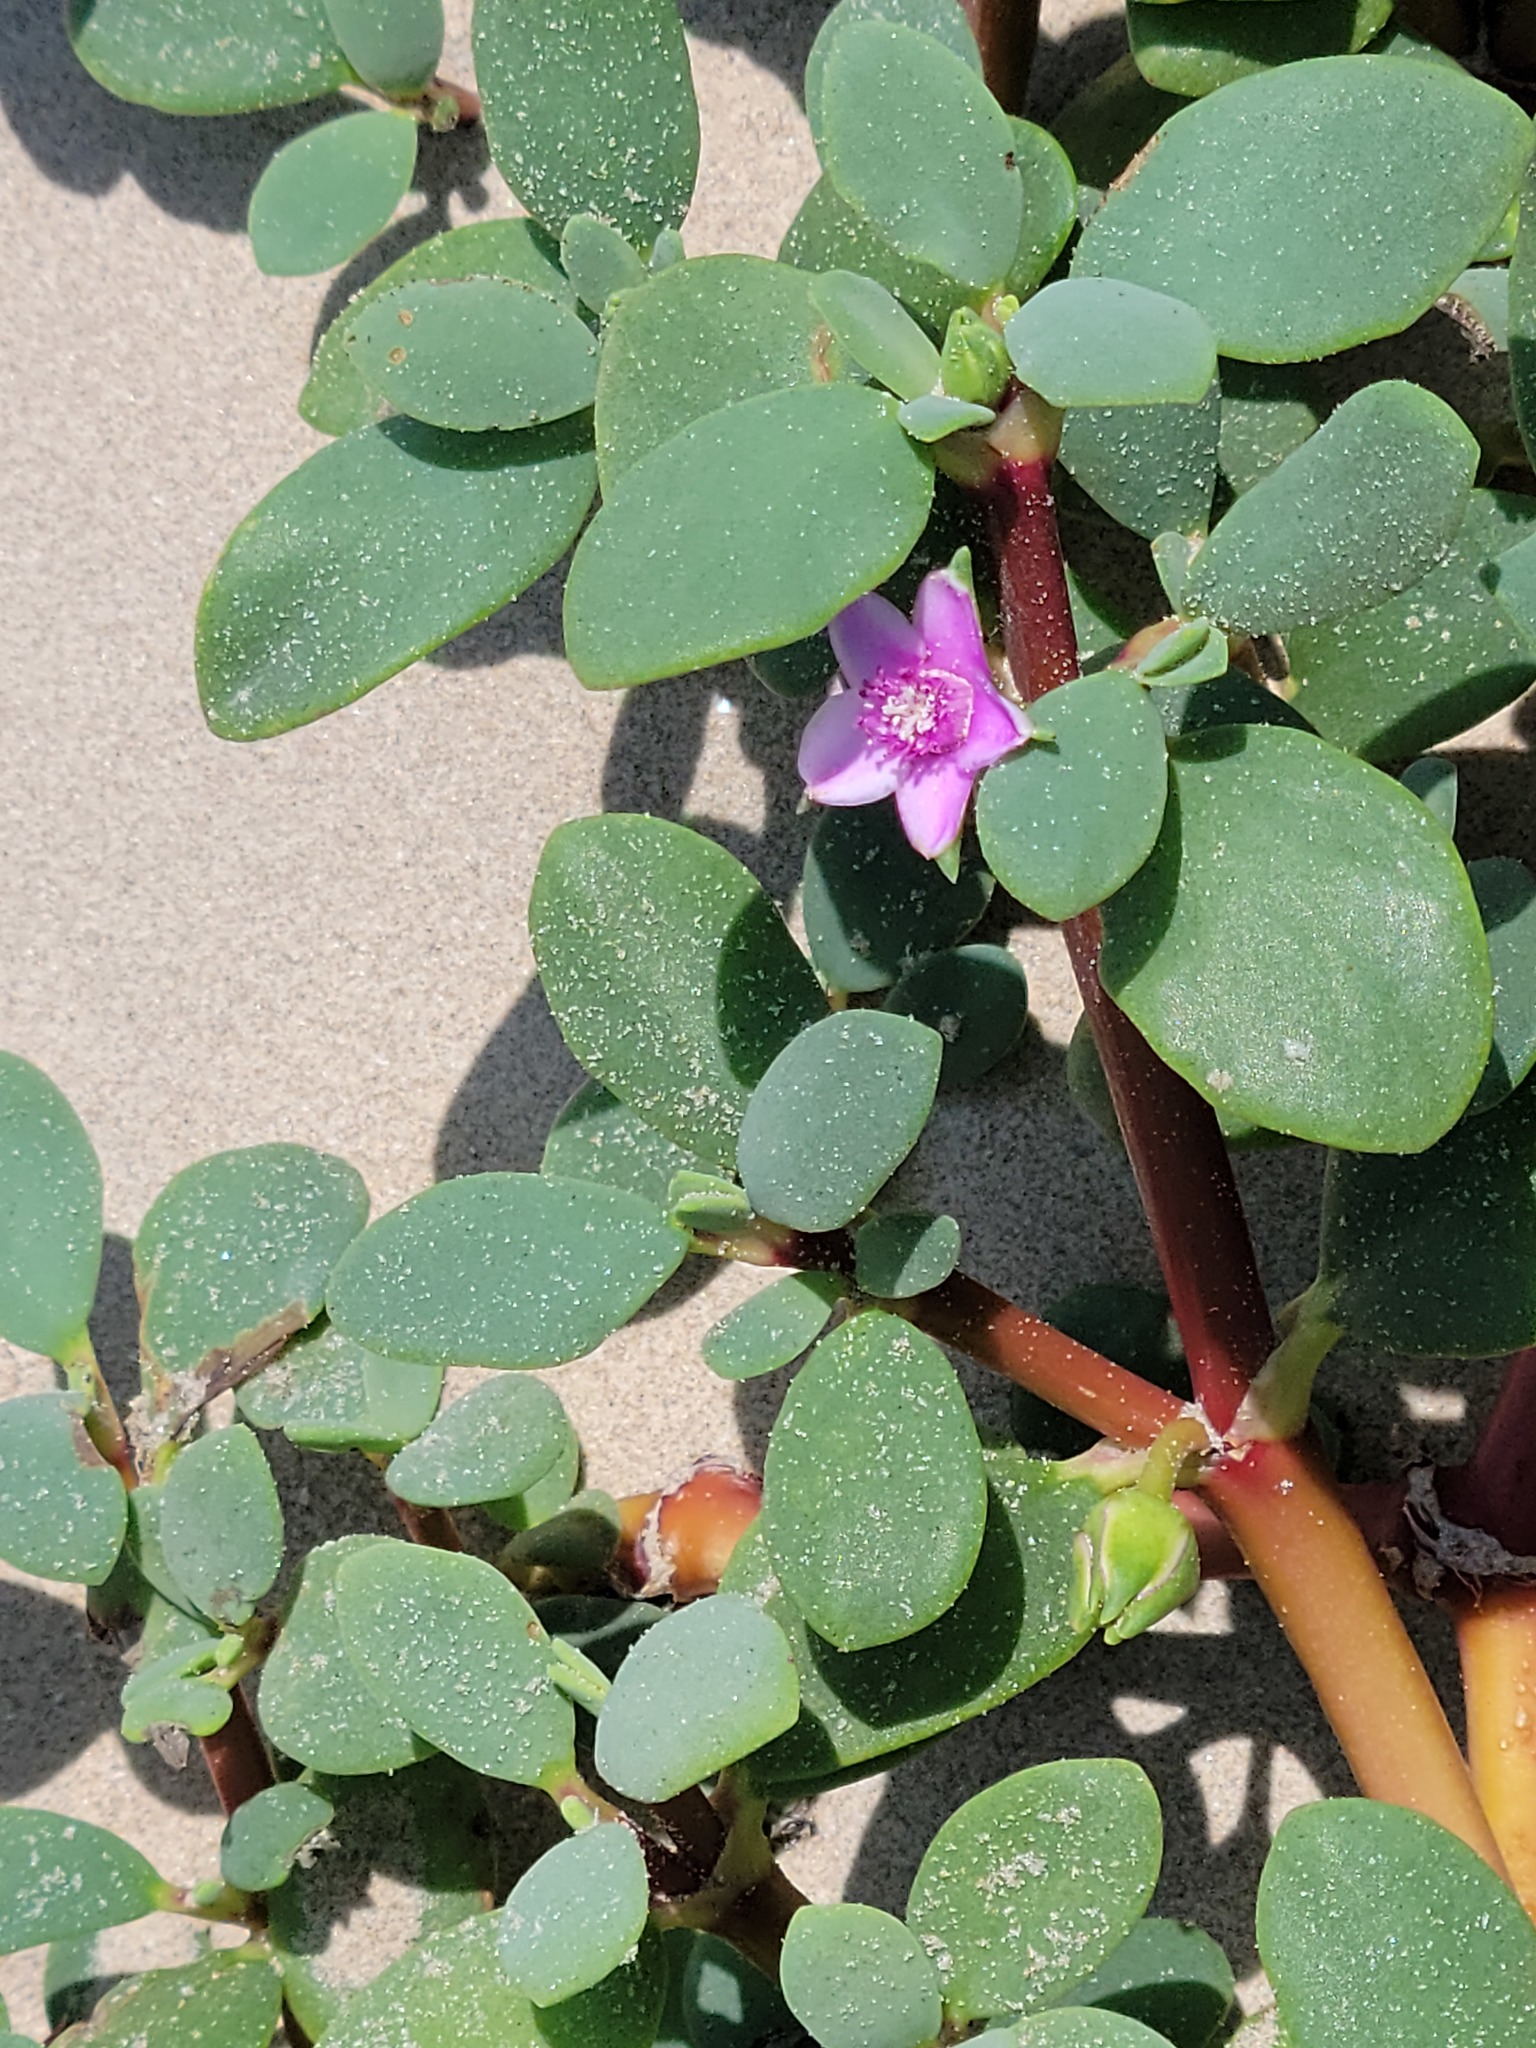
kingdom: Plantae
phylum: Tracheophyta
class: Magnoliopsida
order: Caryophyllales
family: Aizoaceae
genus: Sesuvium
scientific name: Sesuvium portulacastrum
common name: Sea-purslane
